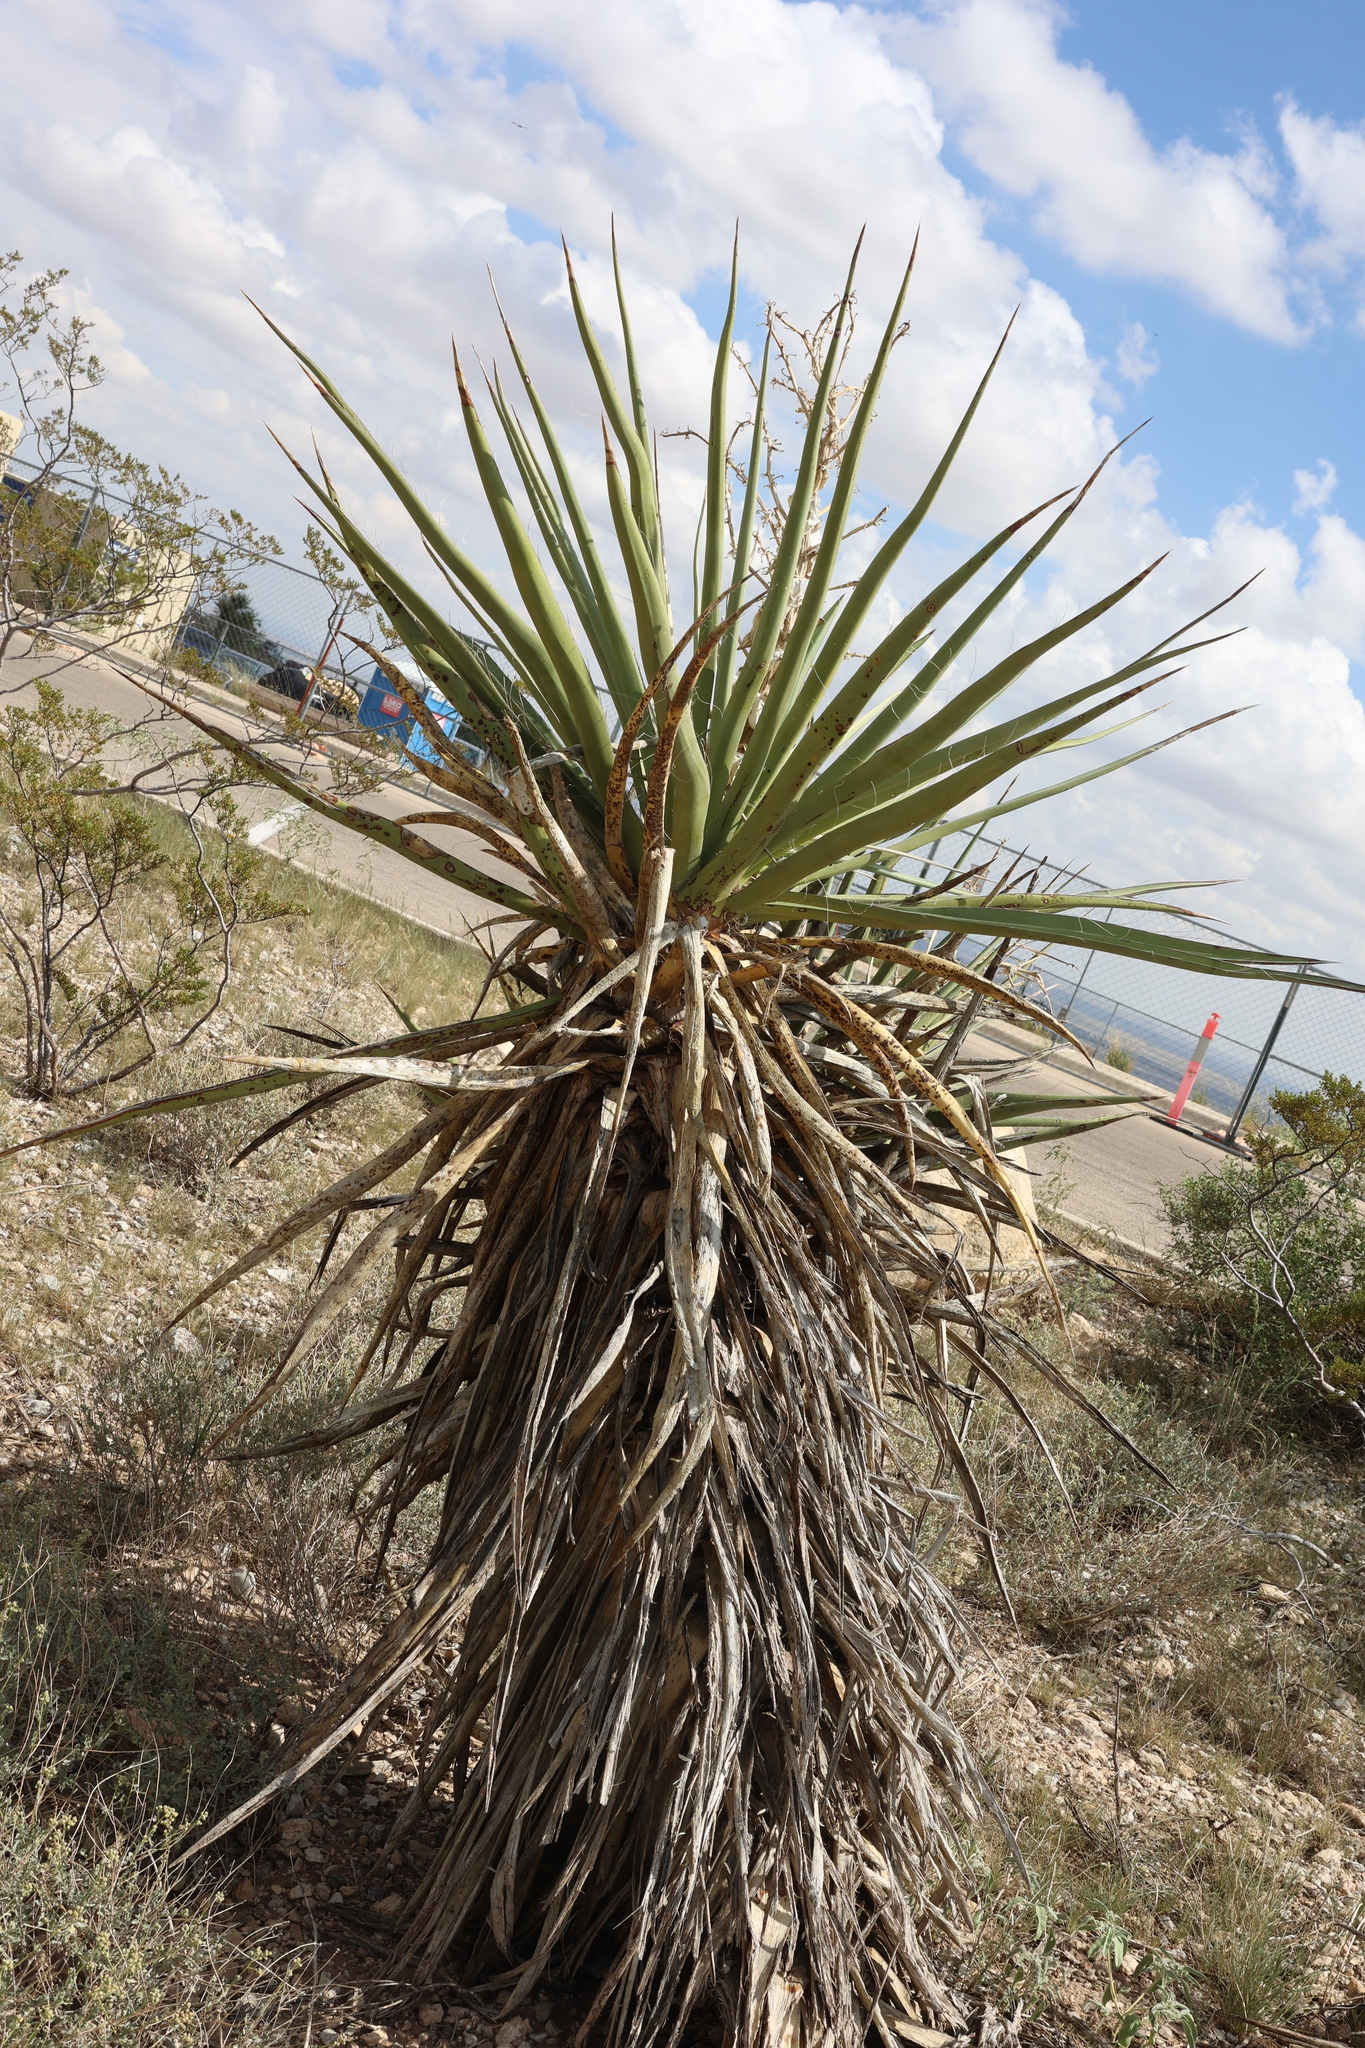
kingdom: Plantae
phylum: Tracheophyta
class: Liliopsida
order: Asparagales
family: Asparagaceae
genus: Yucca
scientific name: Yucca treculiana
